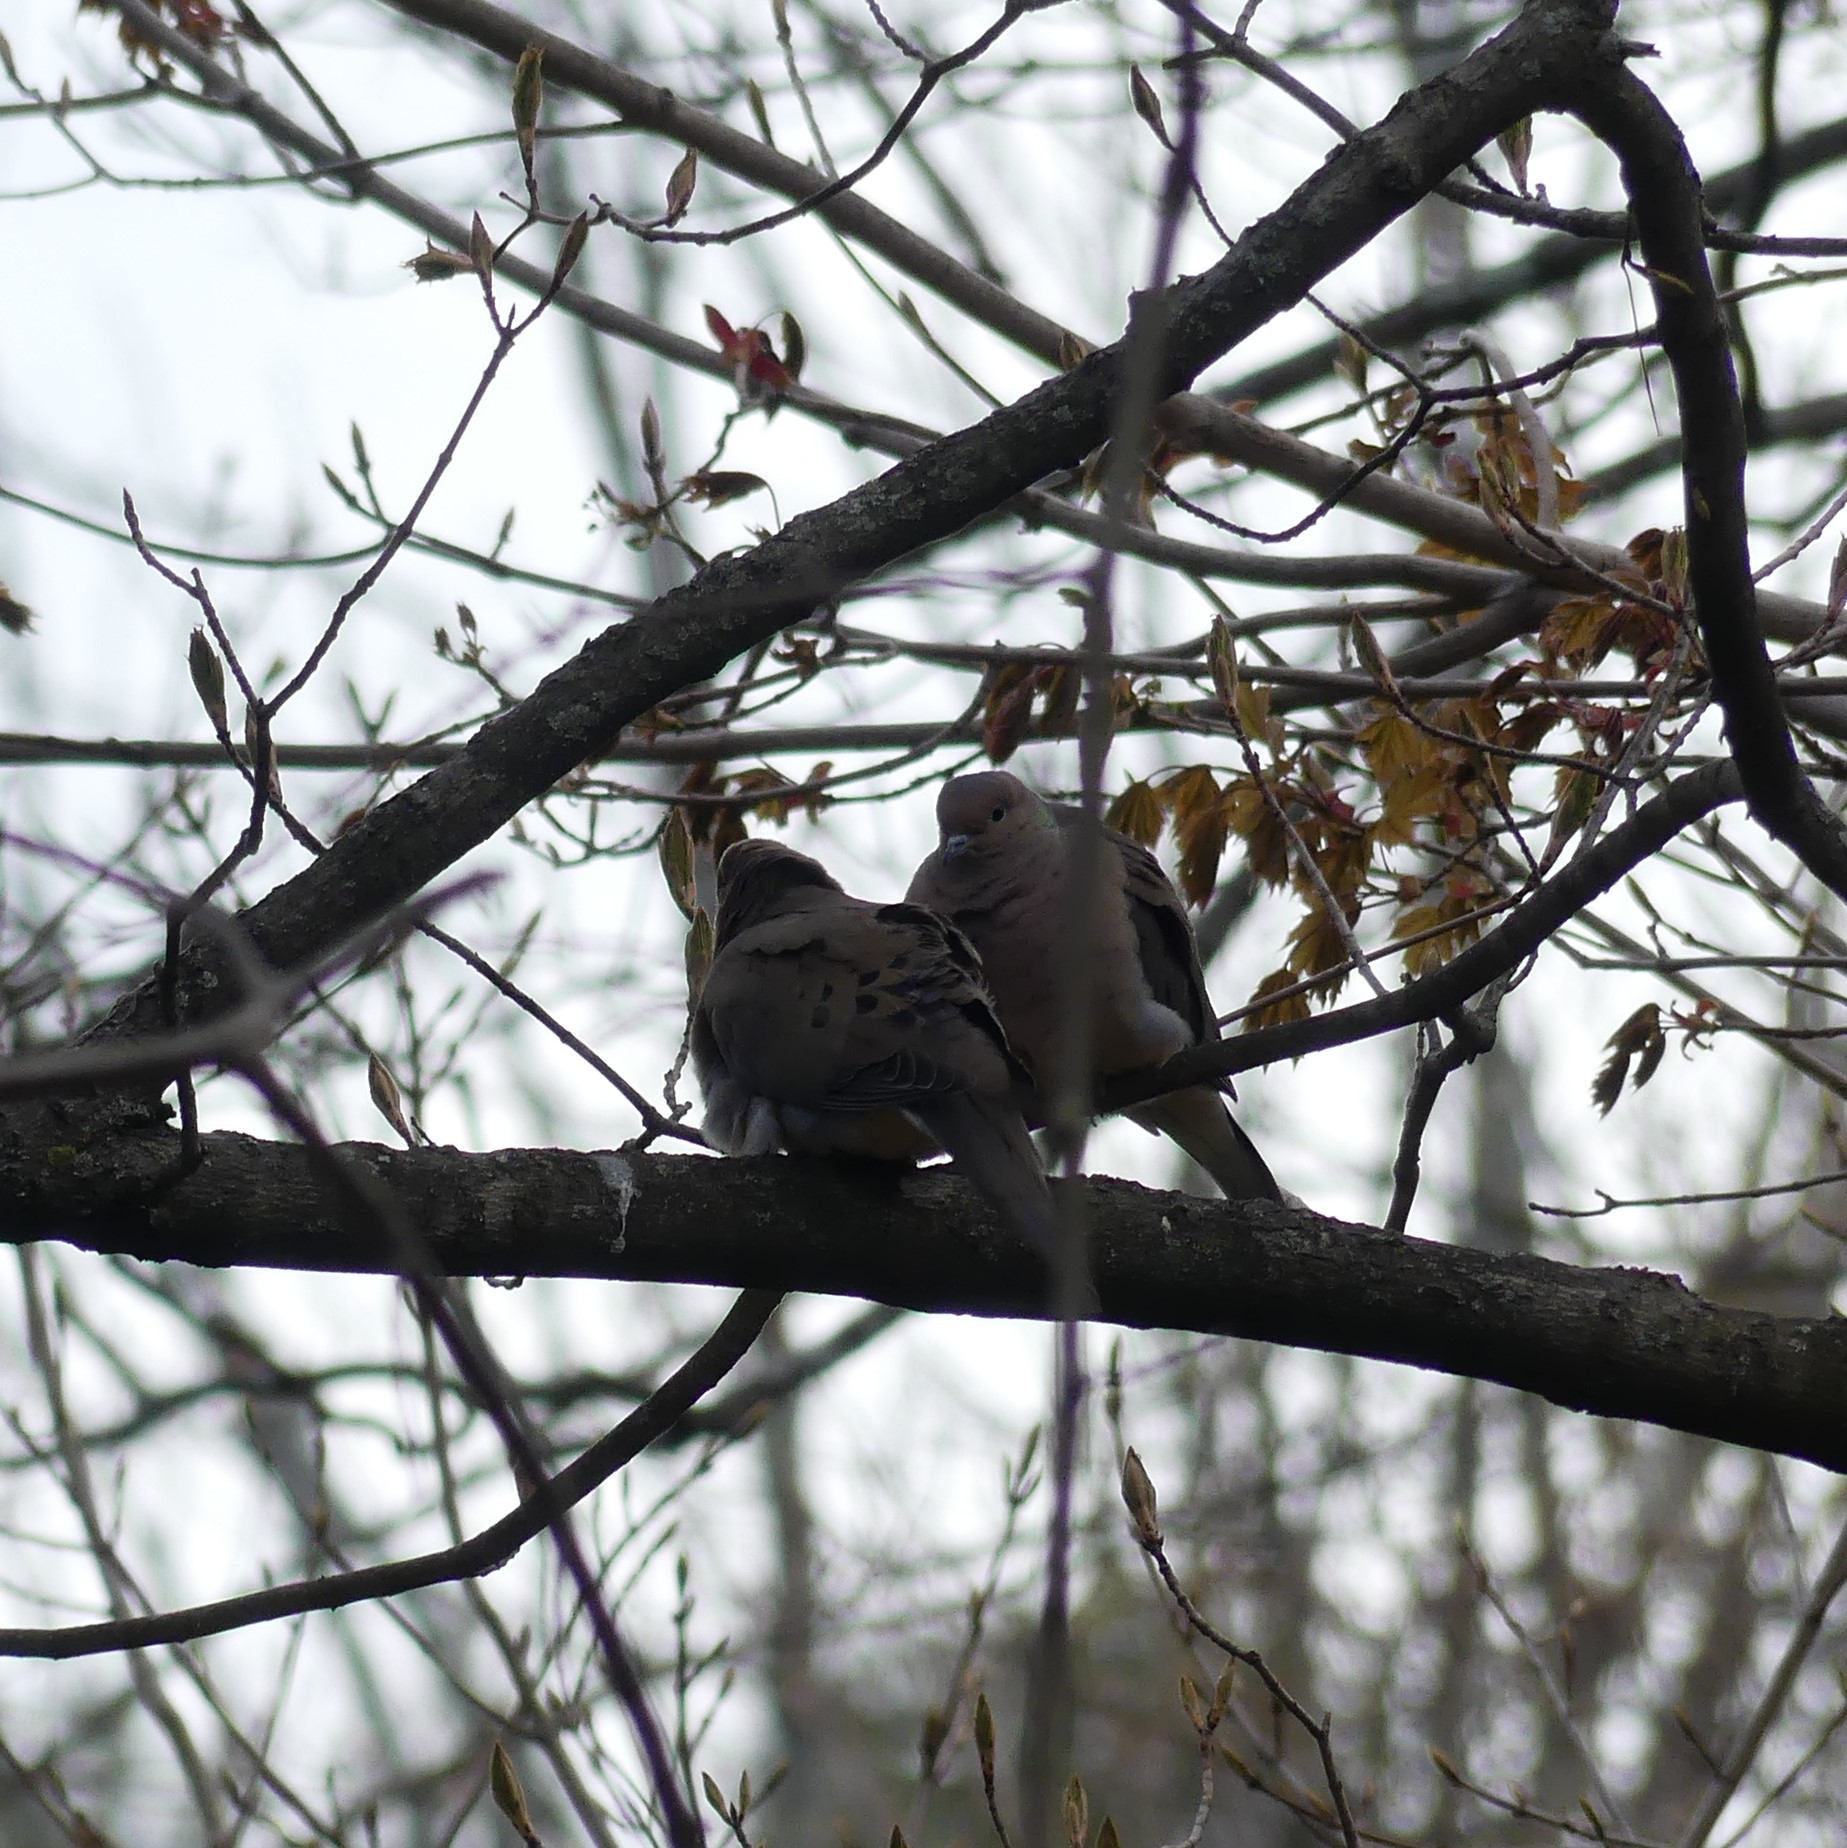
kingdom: Animalia
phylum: Chordata
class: Aves
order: Columbiformes
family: Columbidae
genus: Zenaida
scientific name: Zenaida macroura
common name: Mourning dove
